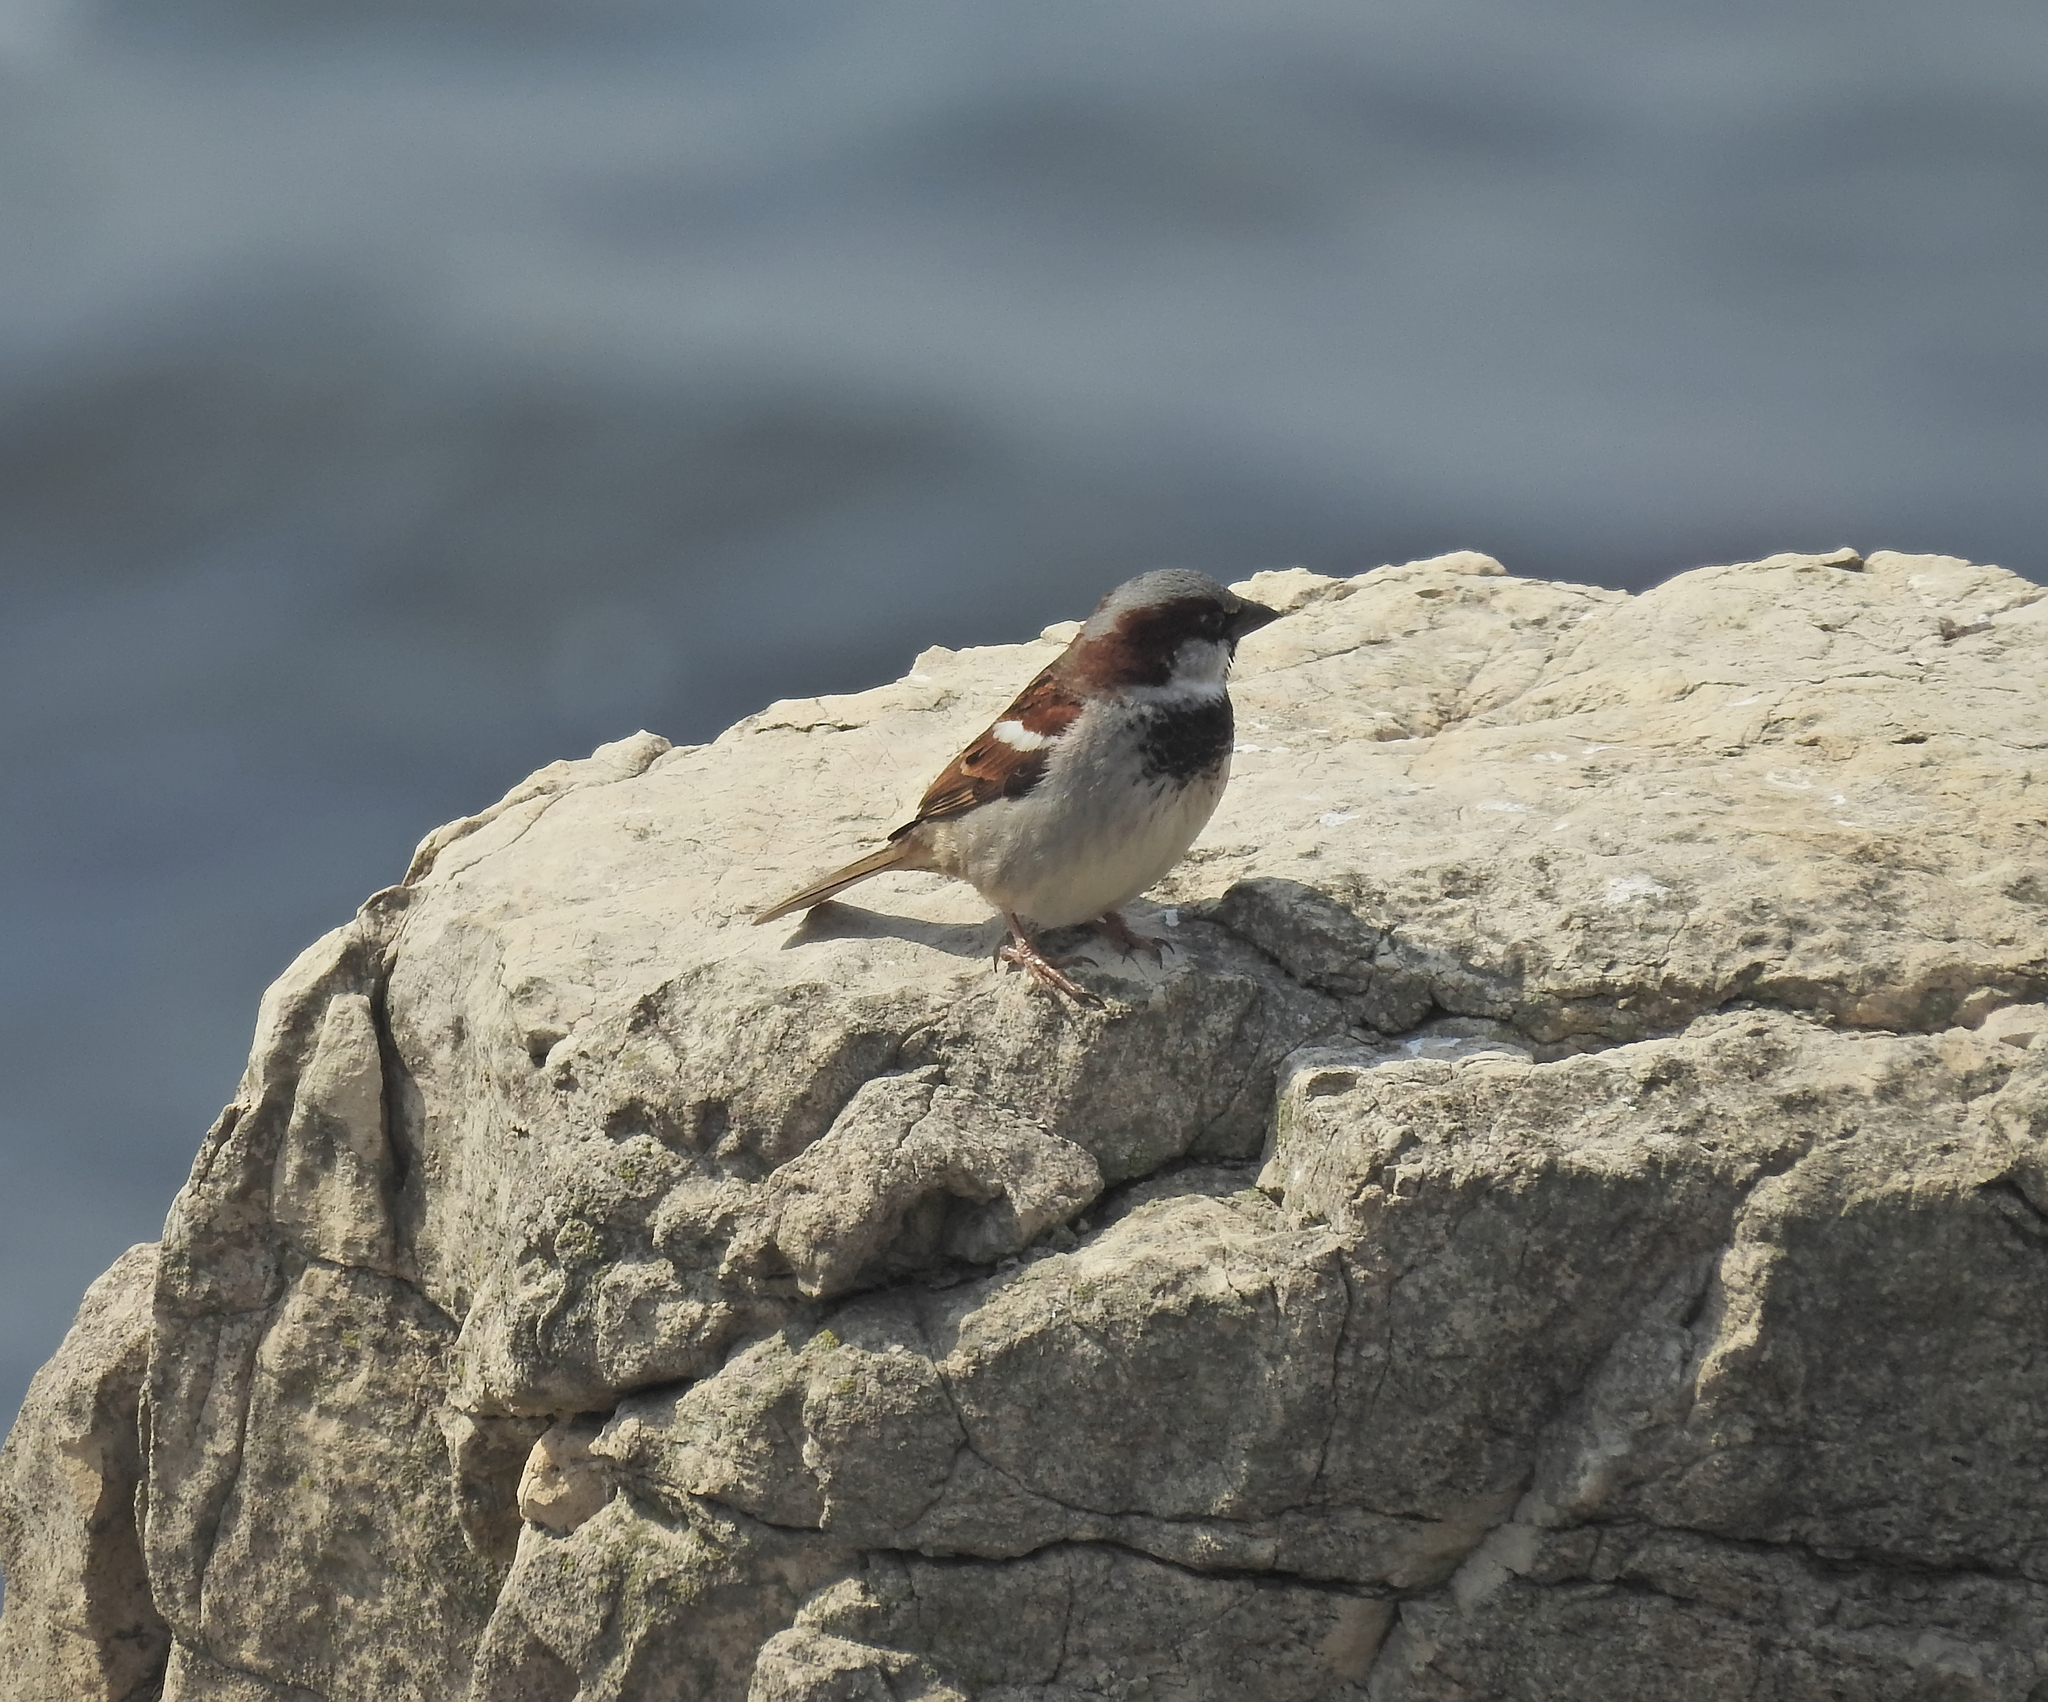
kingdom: Animalia
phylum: Chordata
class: Aves
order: Passeriformes
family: Passeridae
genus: Passer
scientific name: Passer domesticus
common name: House sparrow
